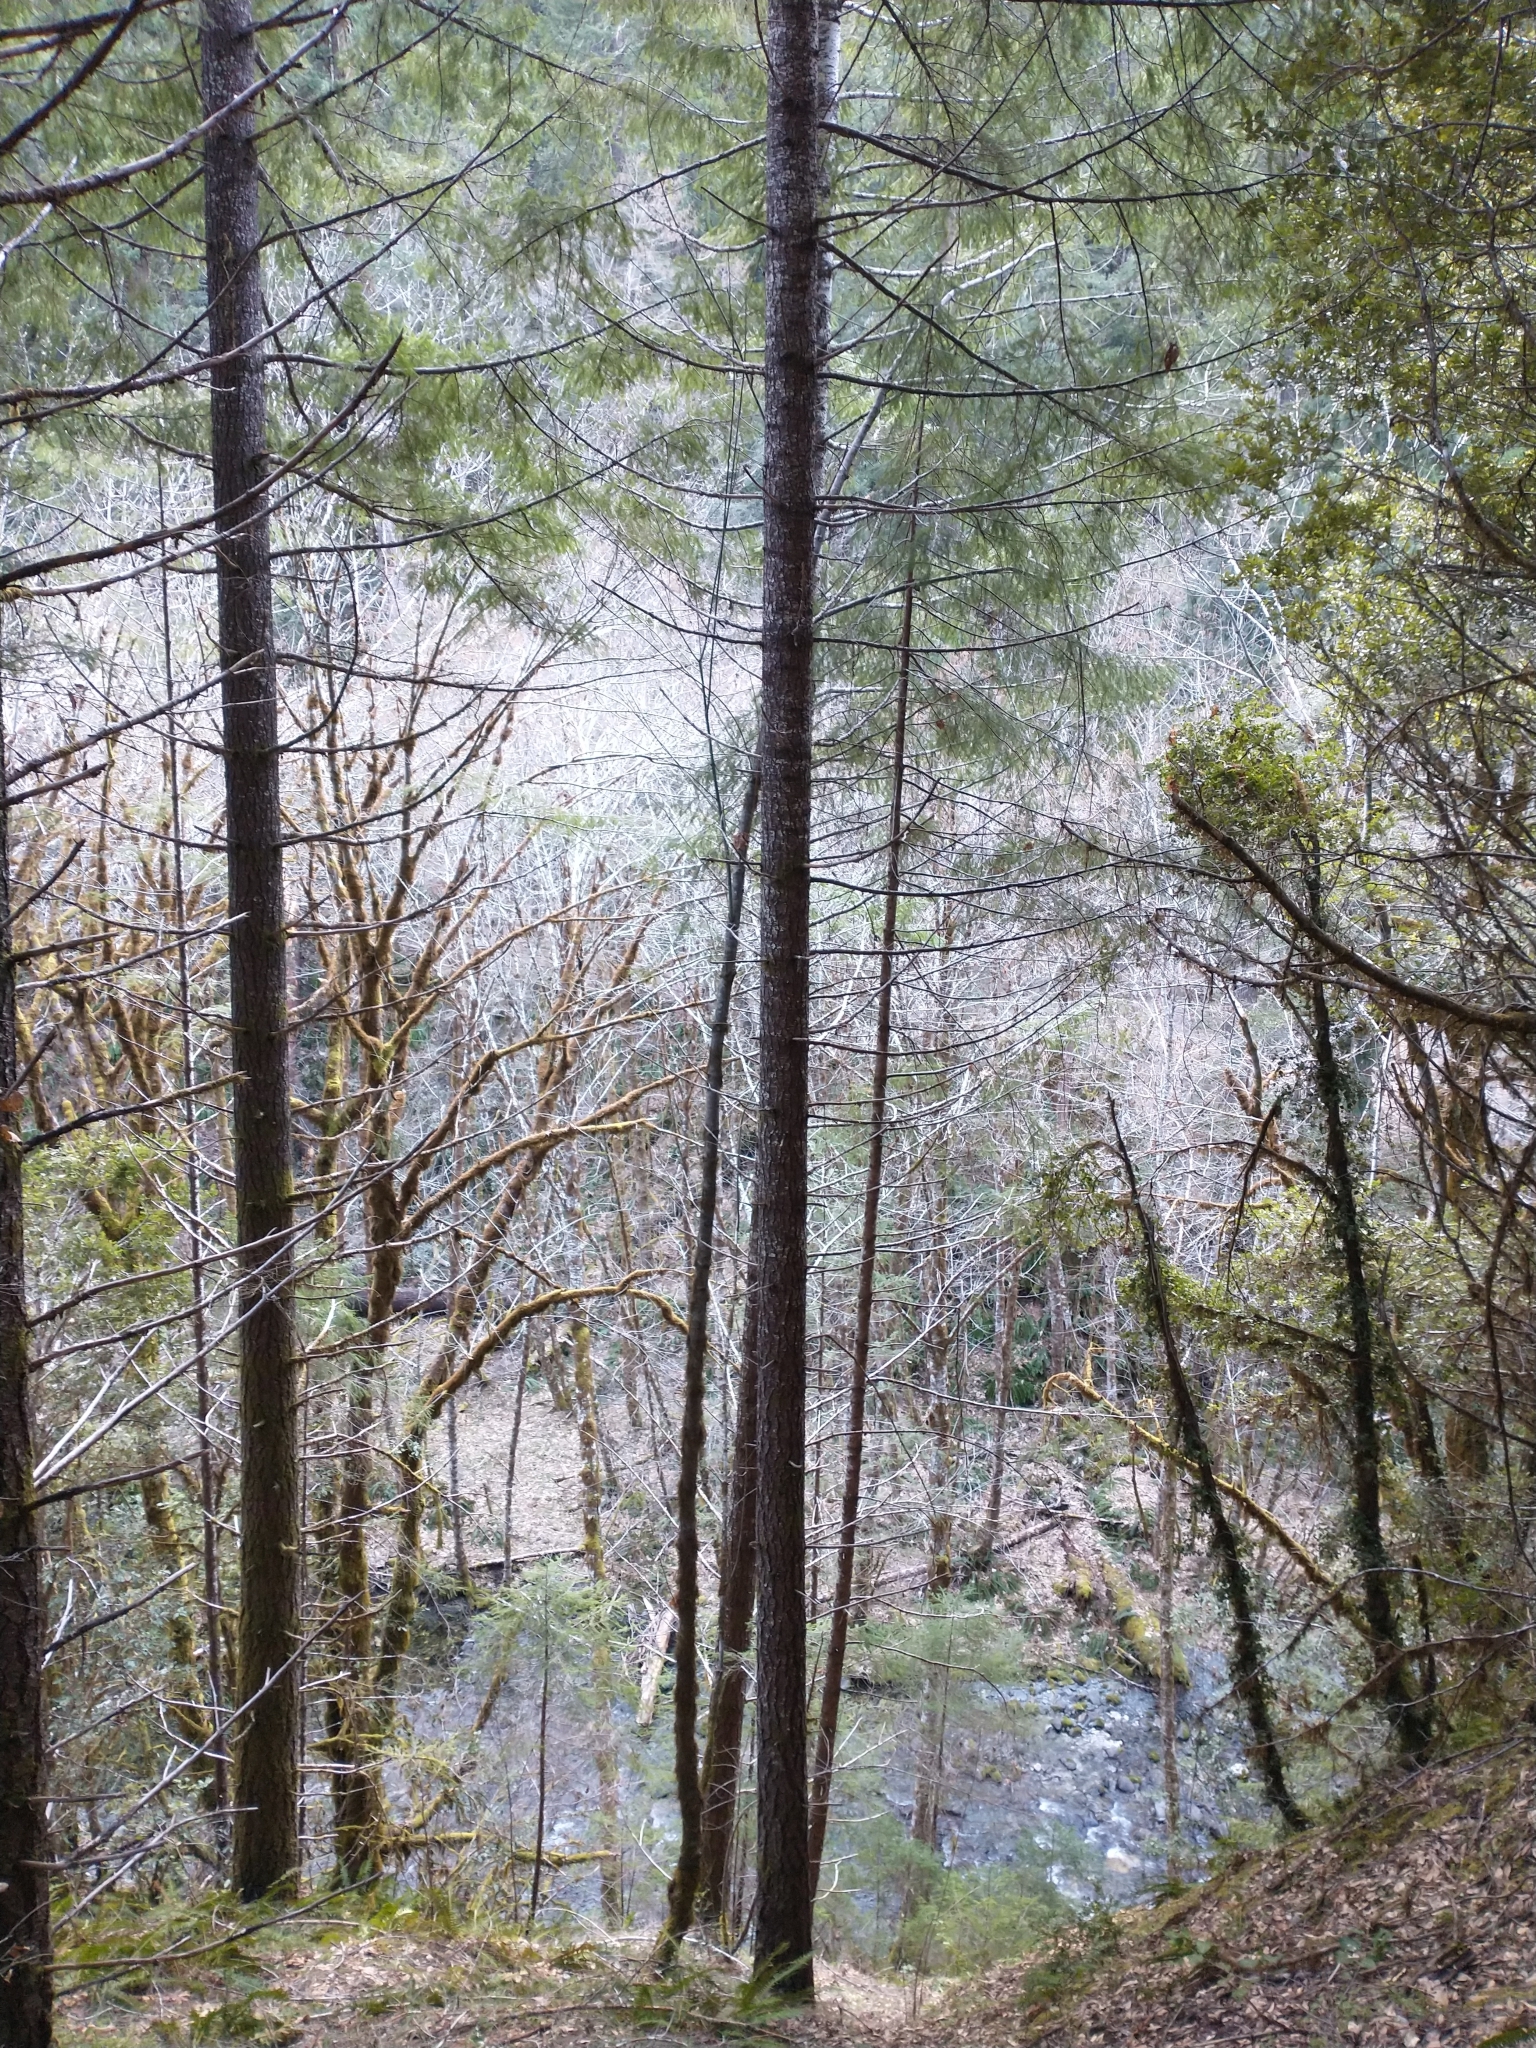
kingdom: Plantae
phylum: Tracheophyta
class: Pinopsida
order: Pinales
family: Pinaceae
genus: Pseudotsuga
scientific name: Pseudotsuga menziesii
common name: Douglas fir
